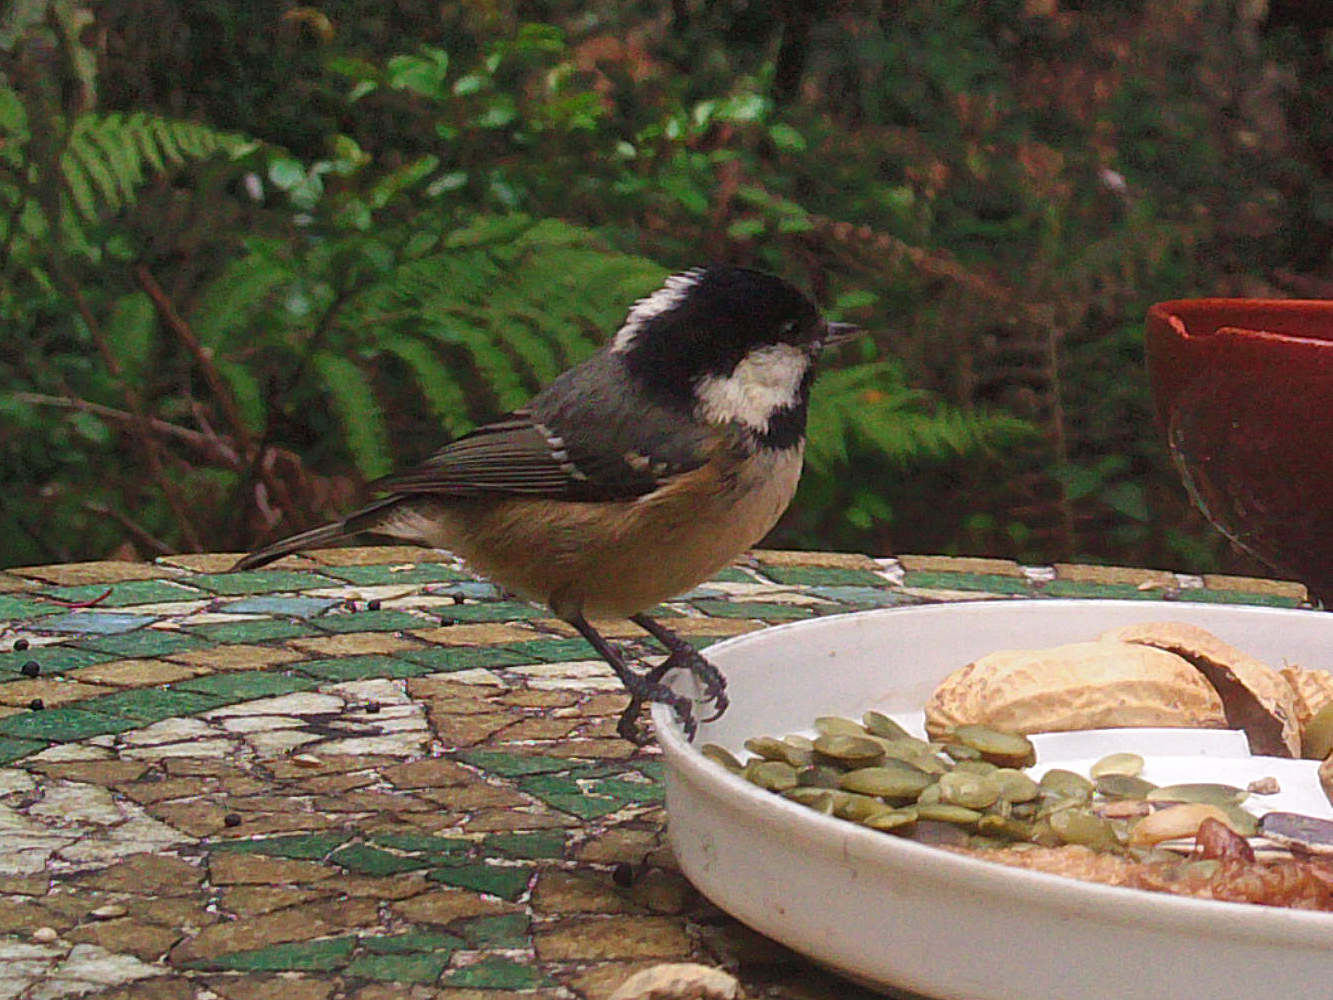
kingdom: Animalia
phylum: Chordata
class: Aves
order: Passeriformes
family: Paridae
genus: Periparus
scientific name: Periparus ater
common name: Coal tit
